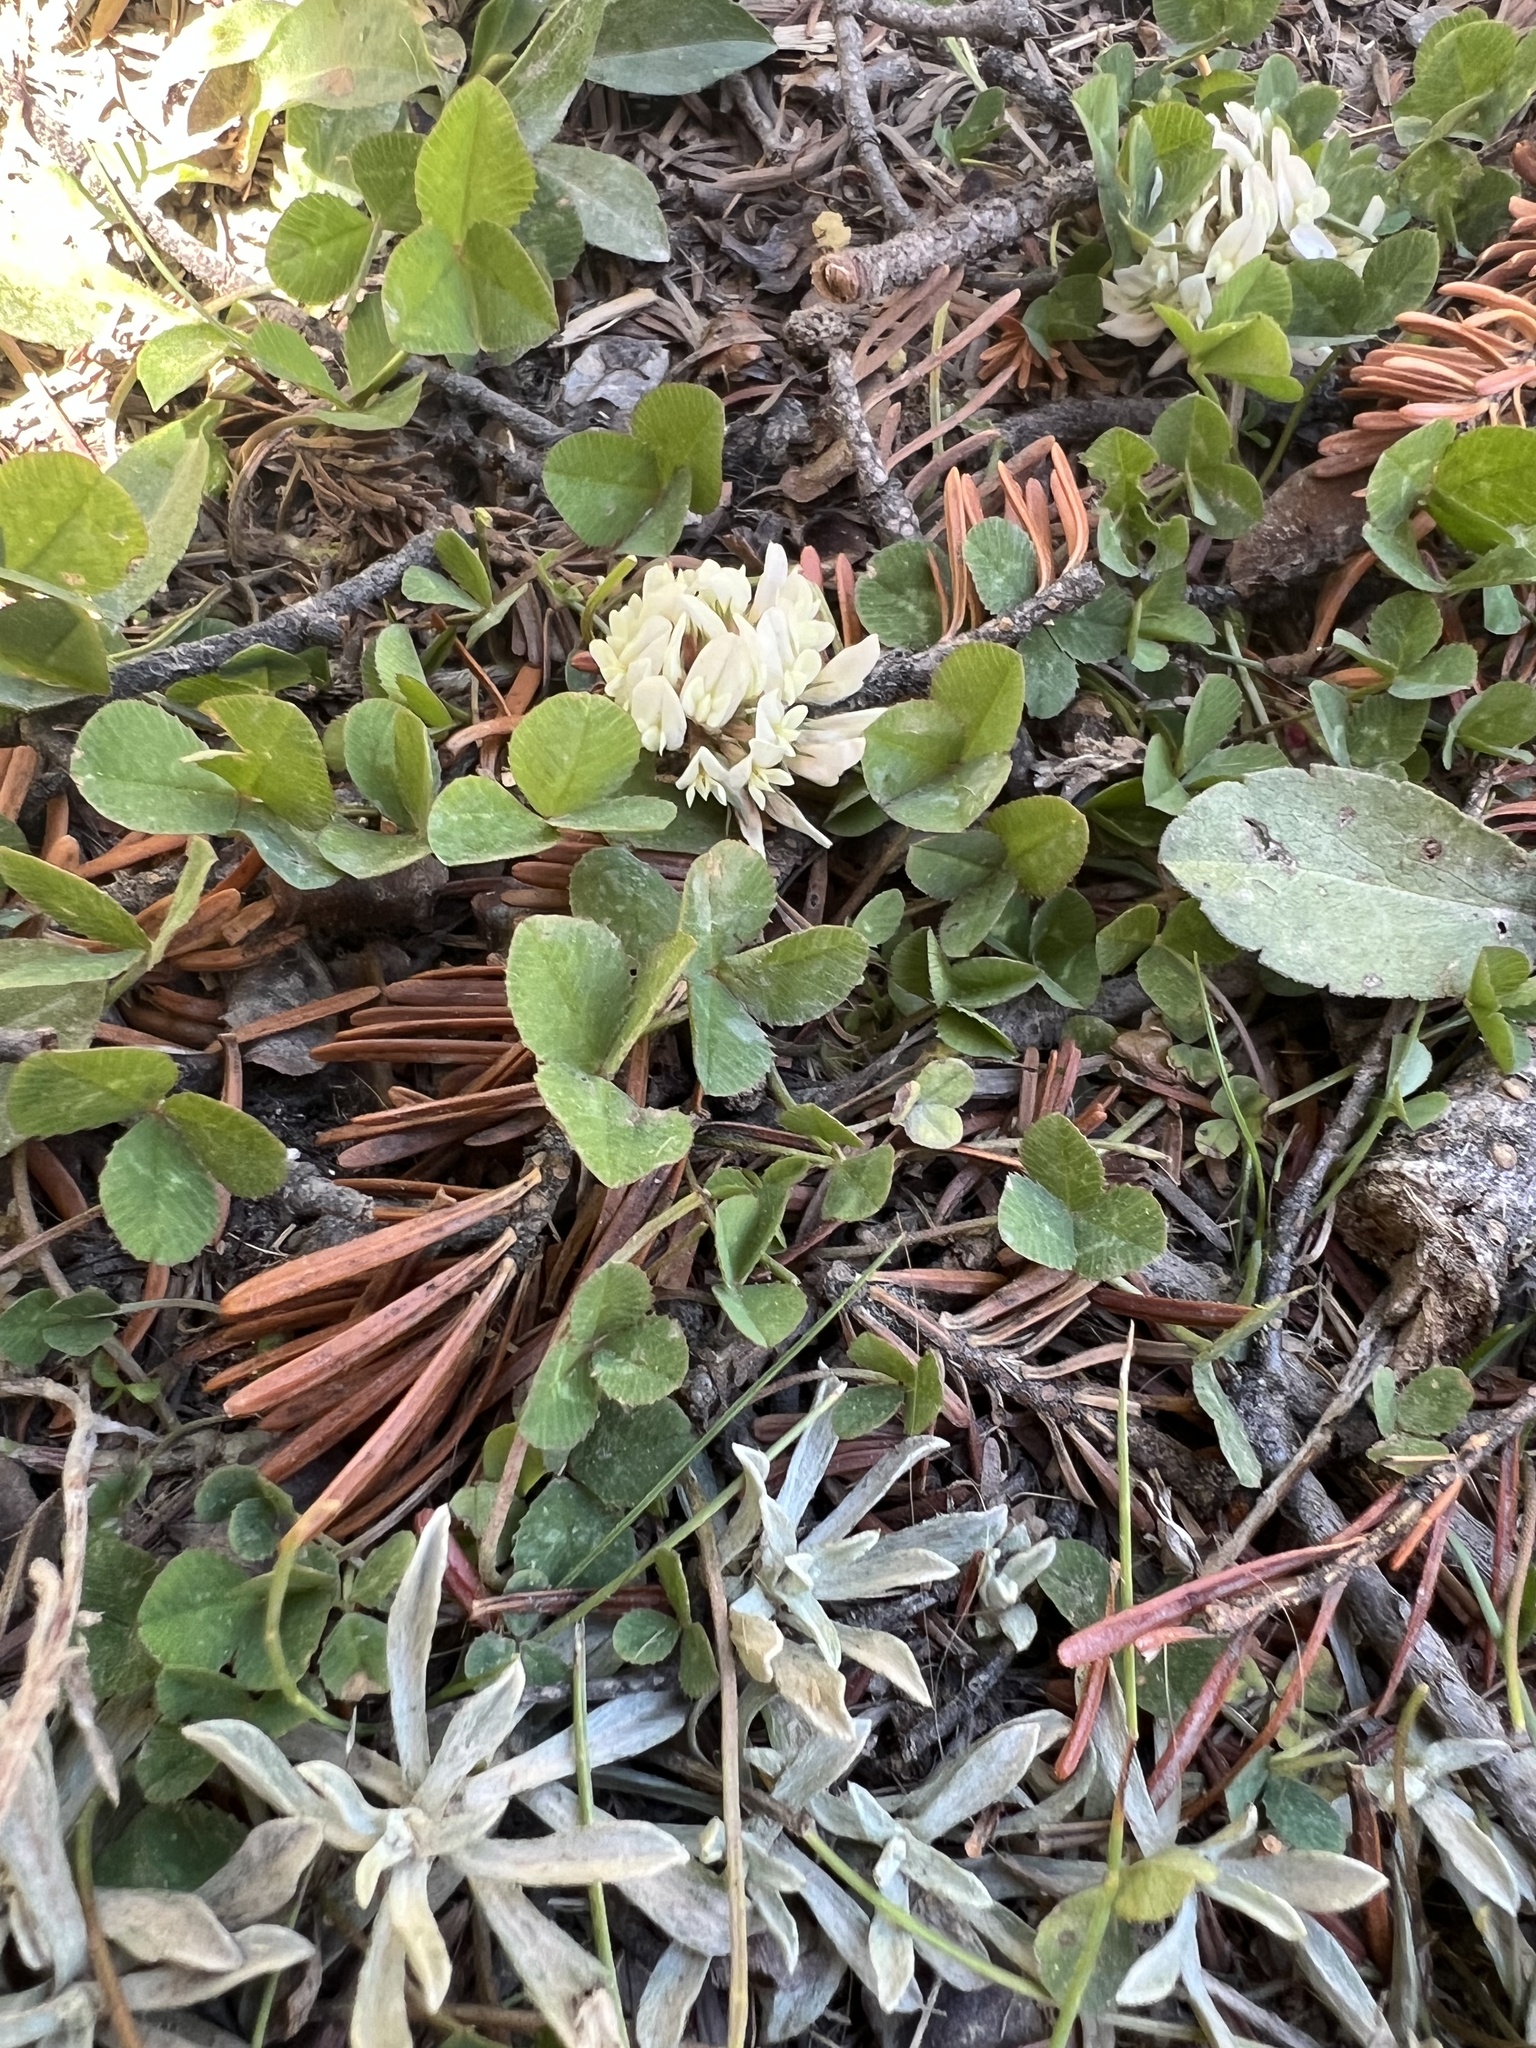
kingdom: Plantae
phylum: Tracheophyta
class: Magnoliopsida
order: Fabales
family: Fabaceae
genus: Trifolium
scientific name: Trifolium repens
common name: White clover
